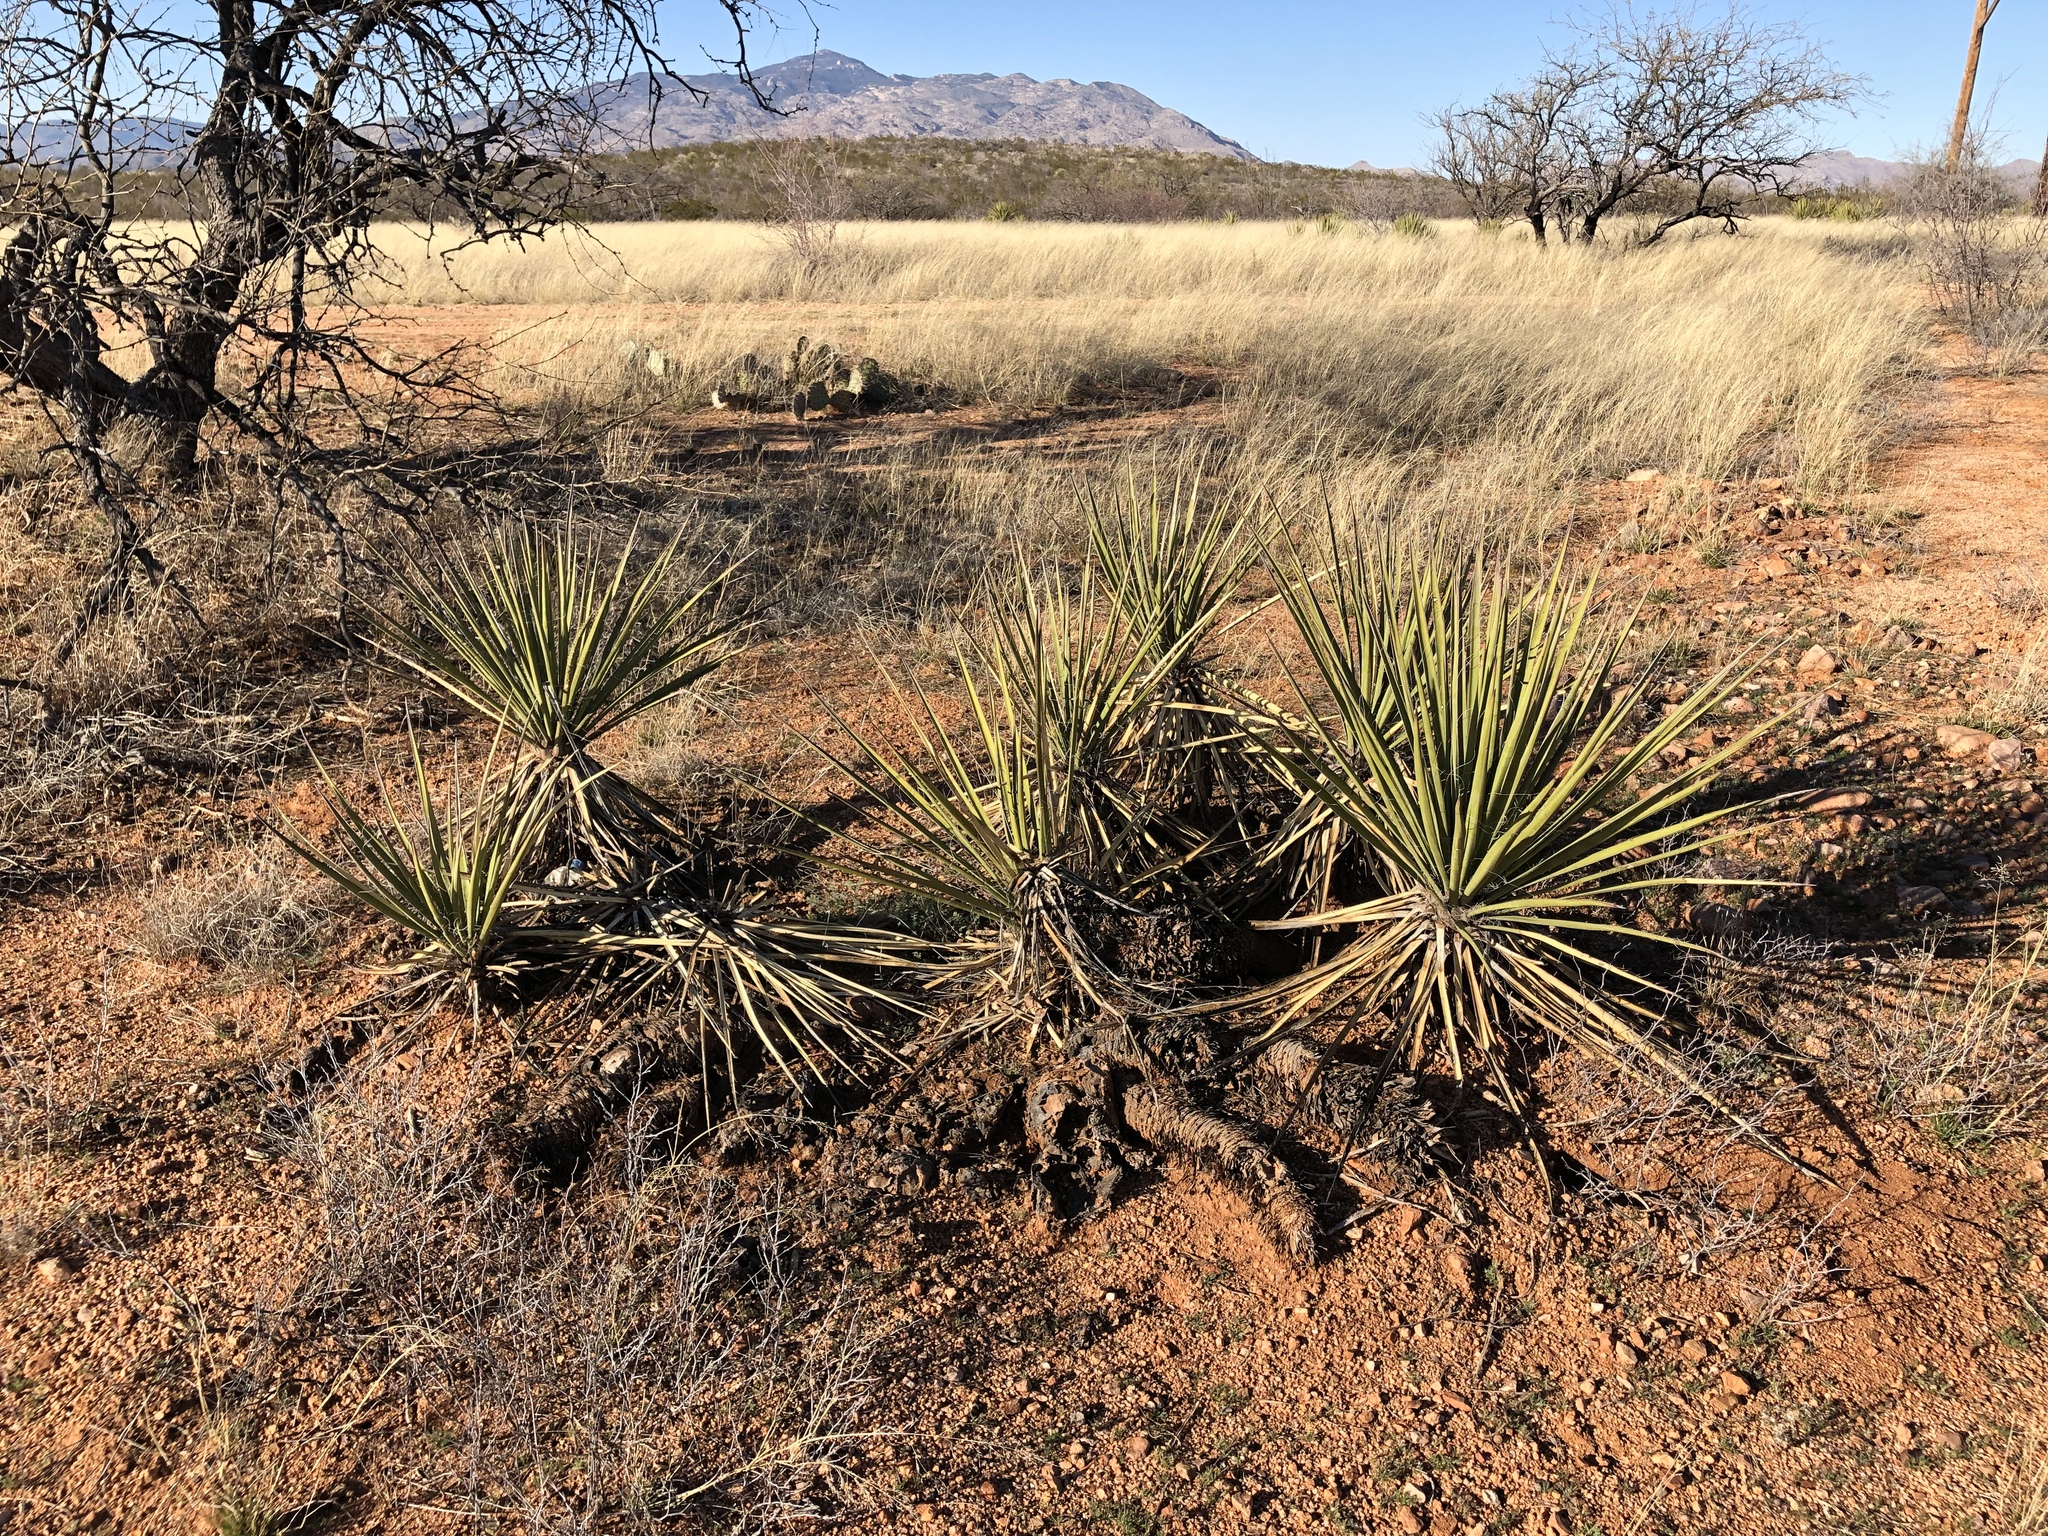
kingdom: Plantae
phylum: Tracheophyta
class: Liliopsida
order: Asparagales
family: Asparagaceae
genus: Yucca
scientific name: Yucca baccata
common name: Banana yucca
